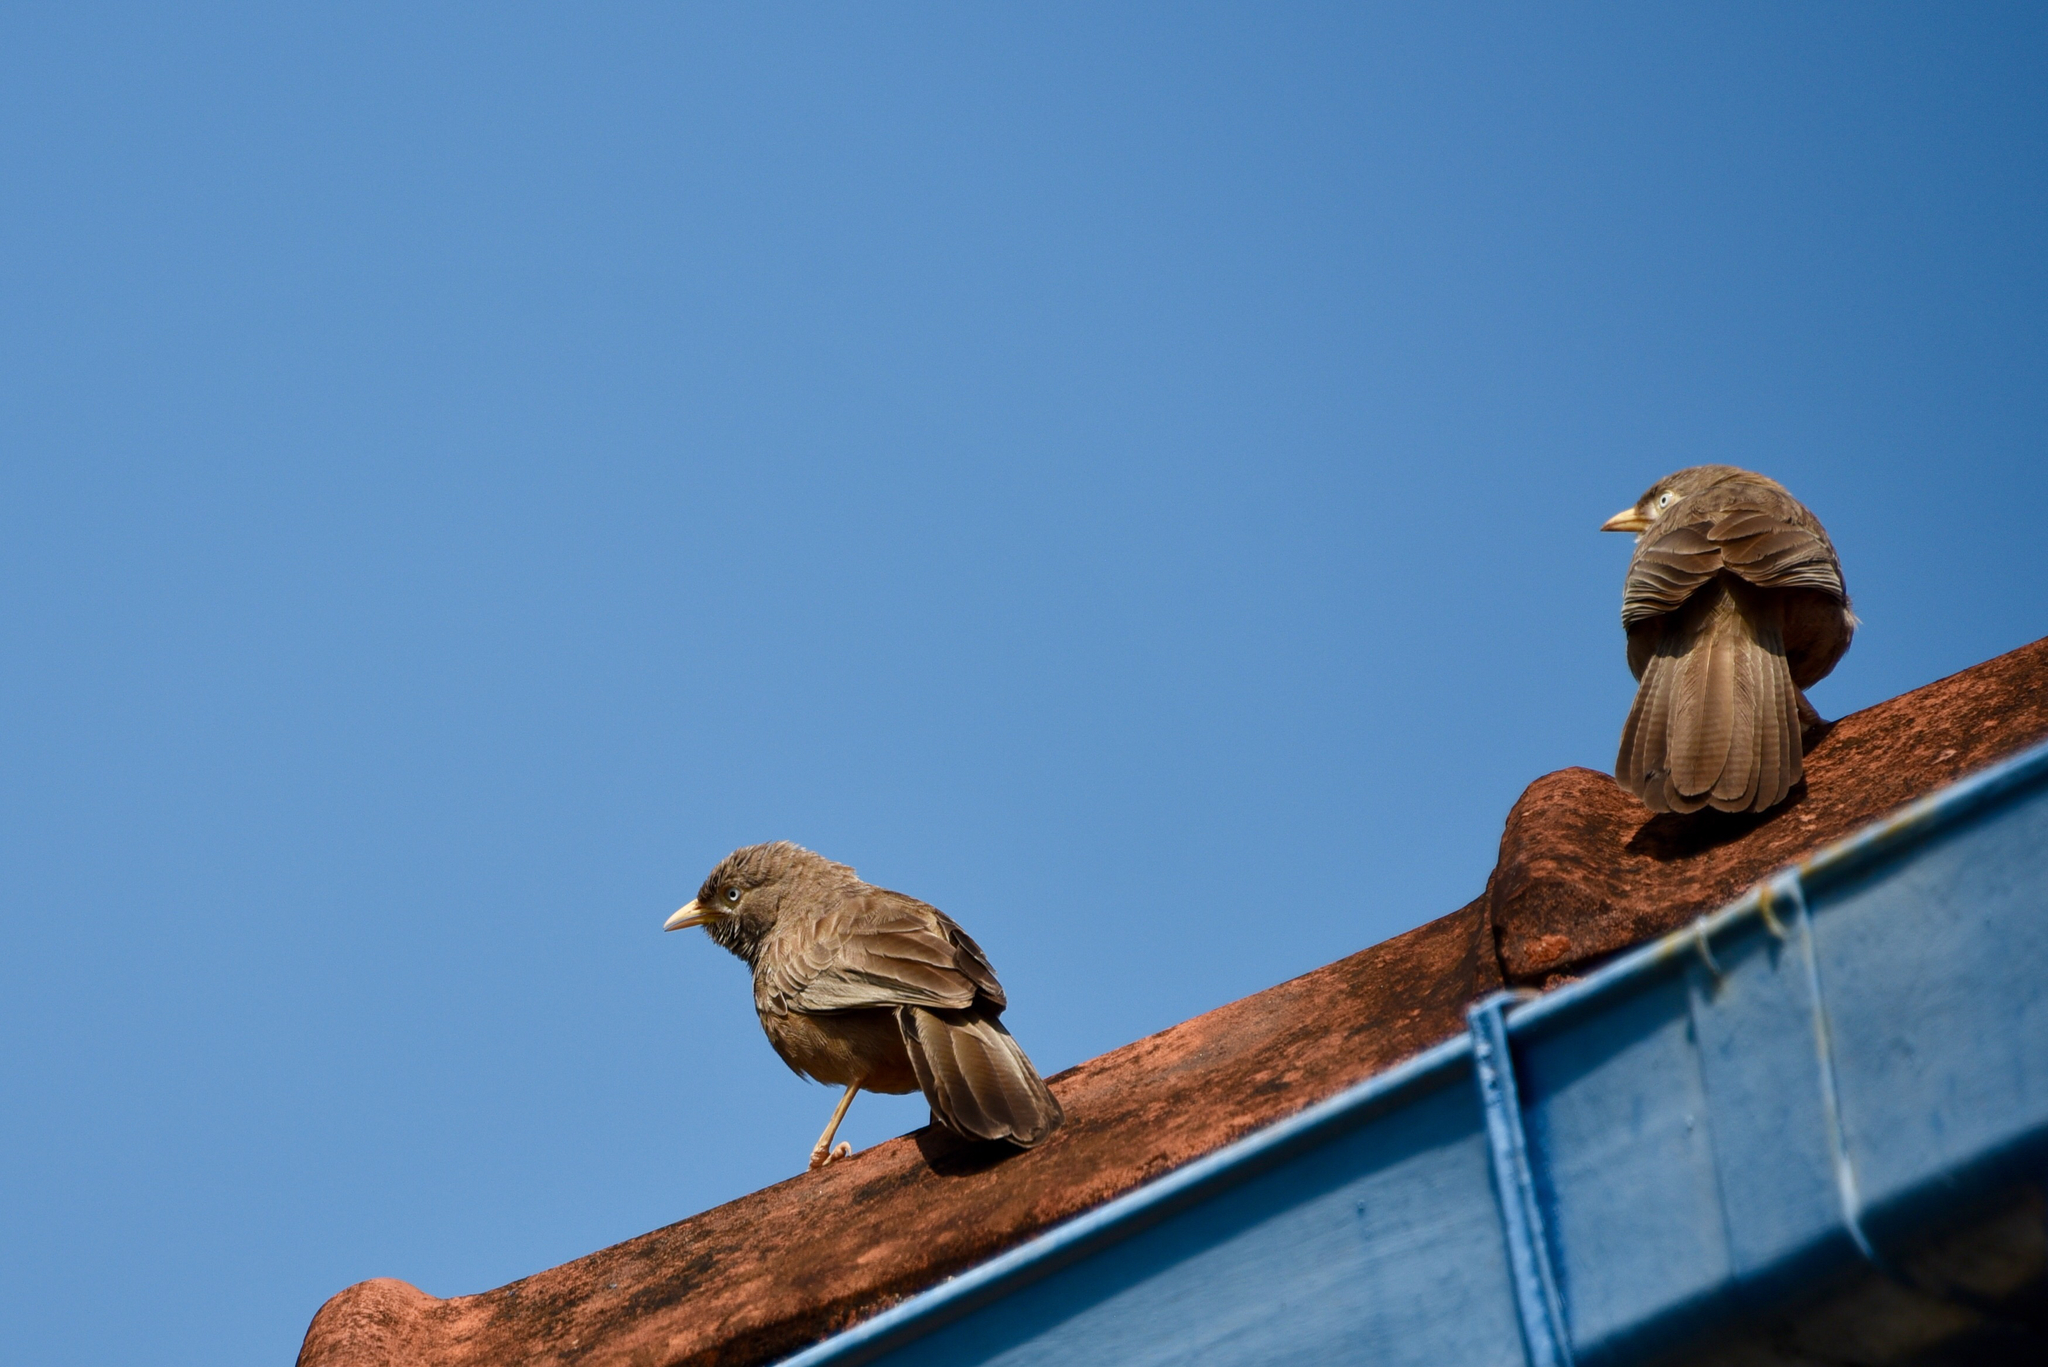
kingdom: Animalia
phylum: Chordata
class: Aves
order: Passeriformes
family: Leiothrichidae
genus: Turdoides
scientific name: Turdoides affinis
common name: Yellow-billed babbler
